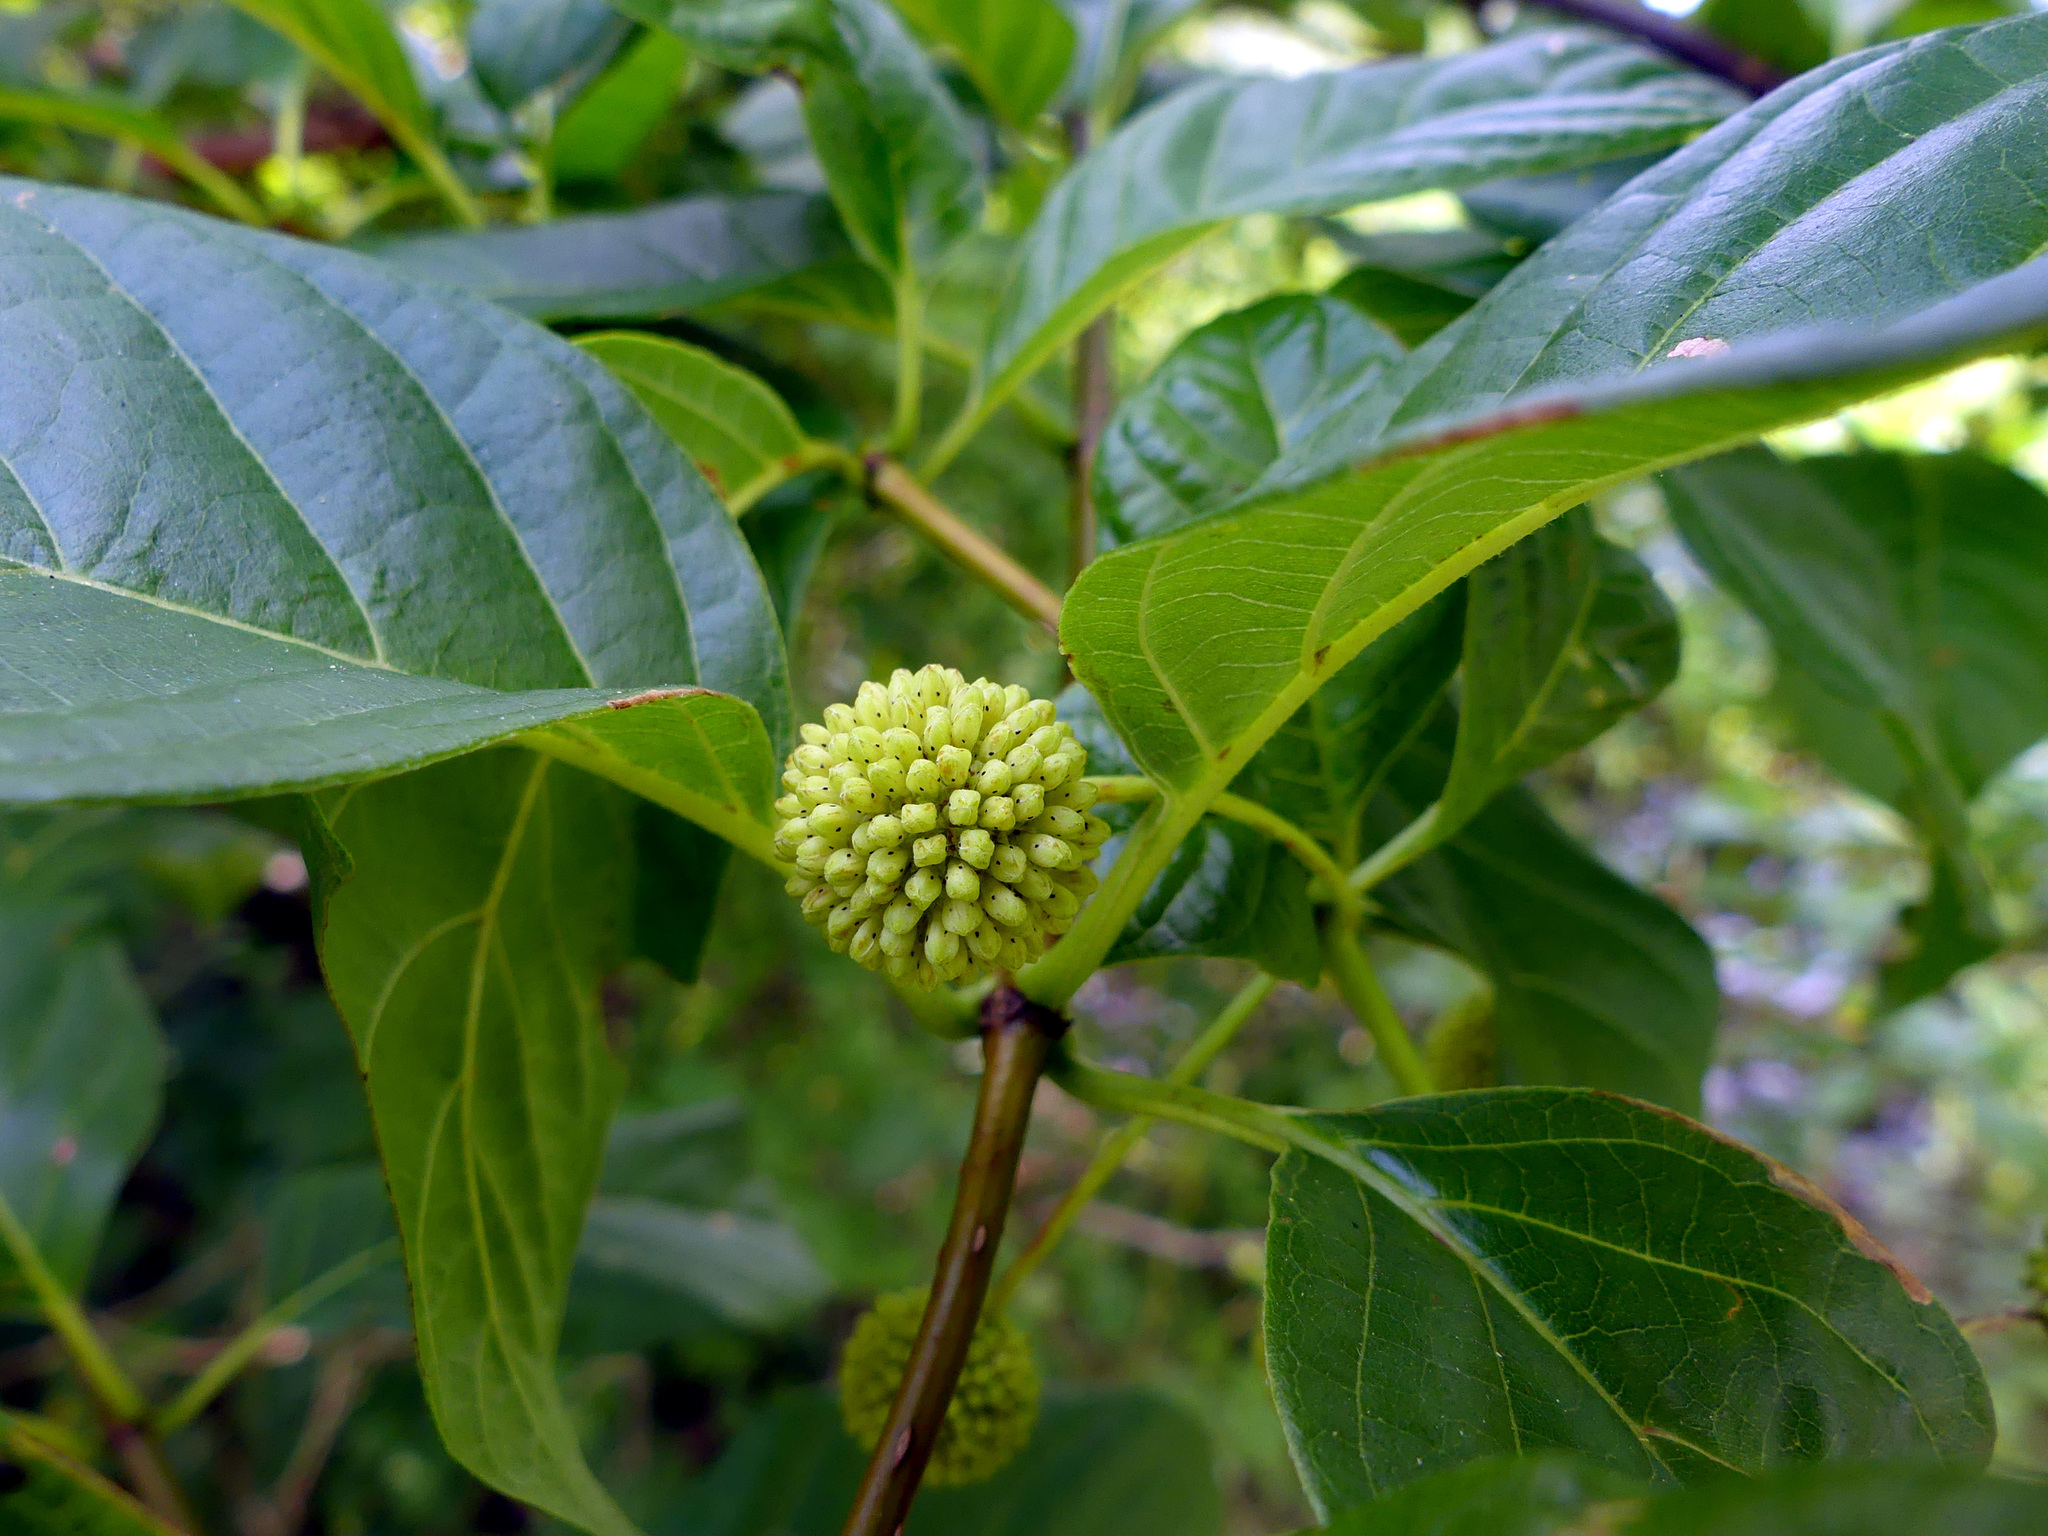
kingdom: Plantae
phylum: Tracheophyta
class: Magnoliopsida
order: Gentianales
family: Rubiaceae
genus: Cephalanthus
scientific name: Cephalanthus occidentalis
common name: Button-willow
